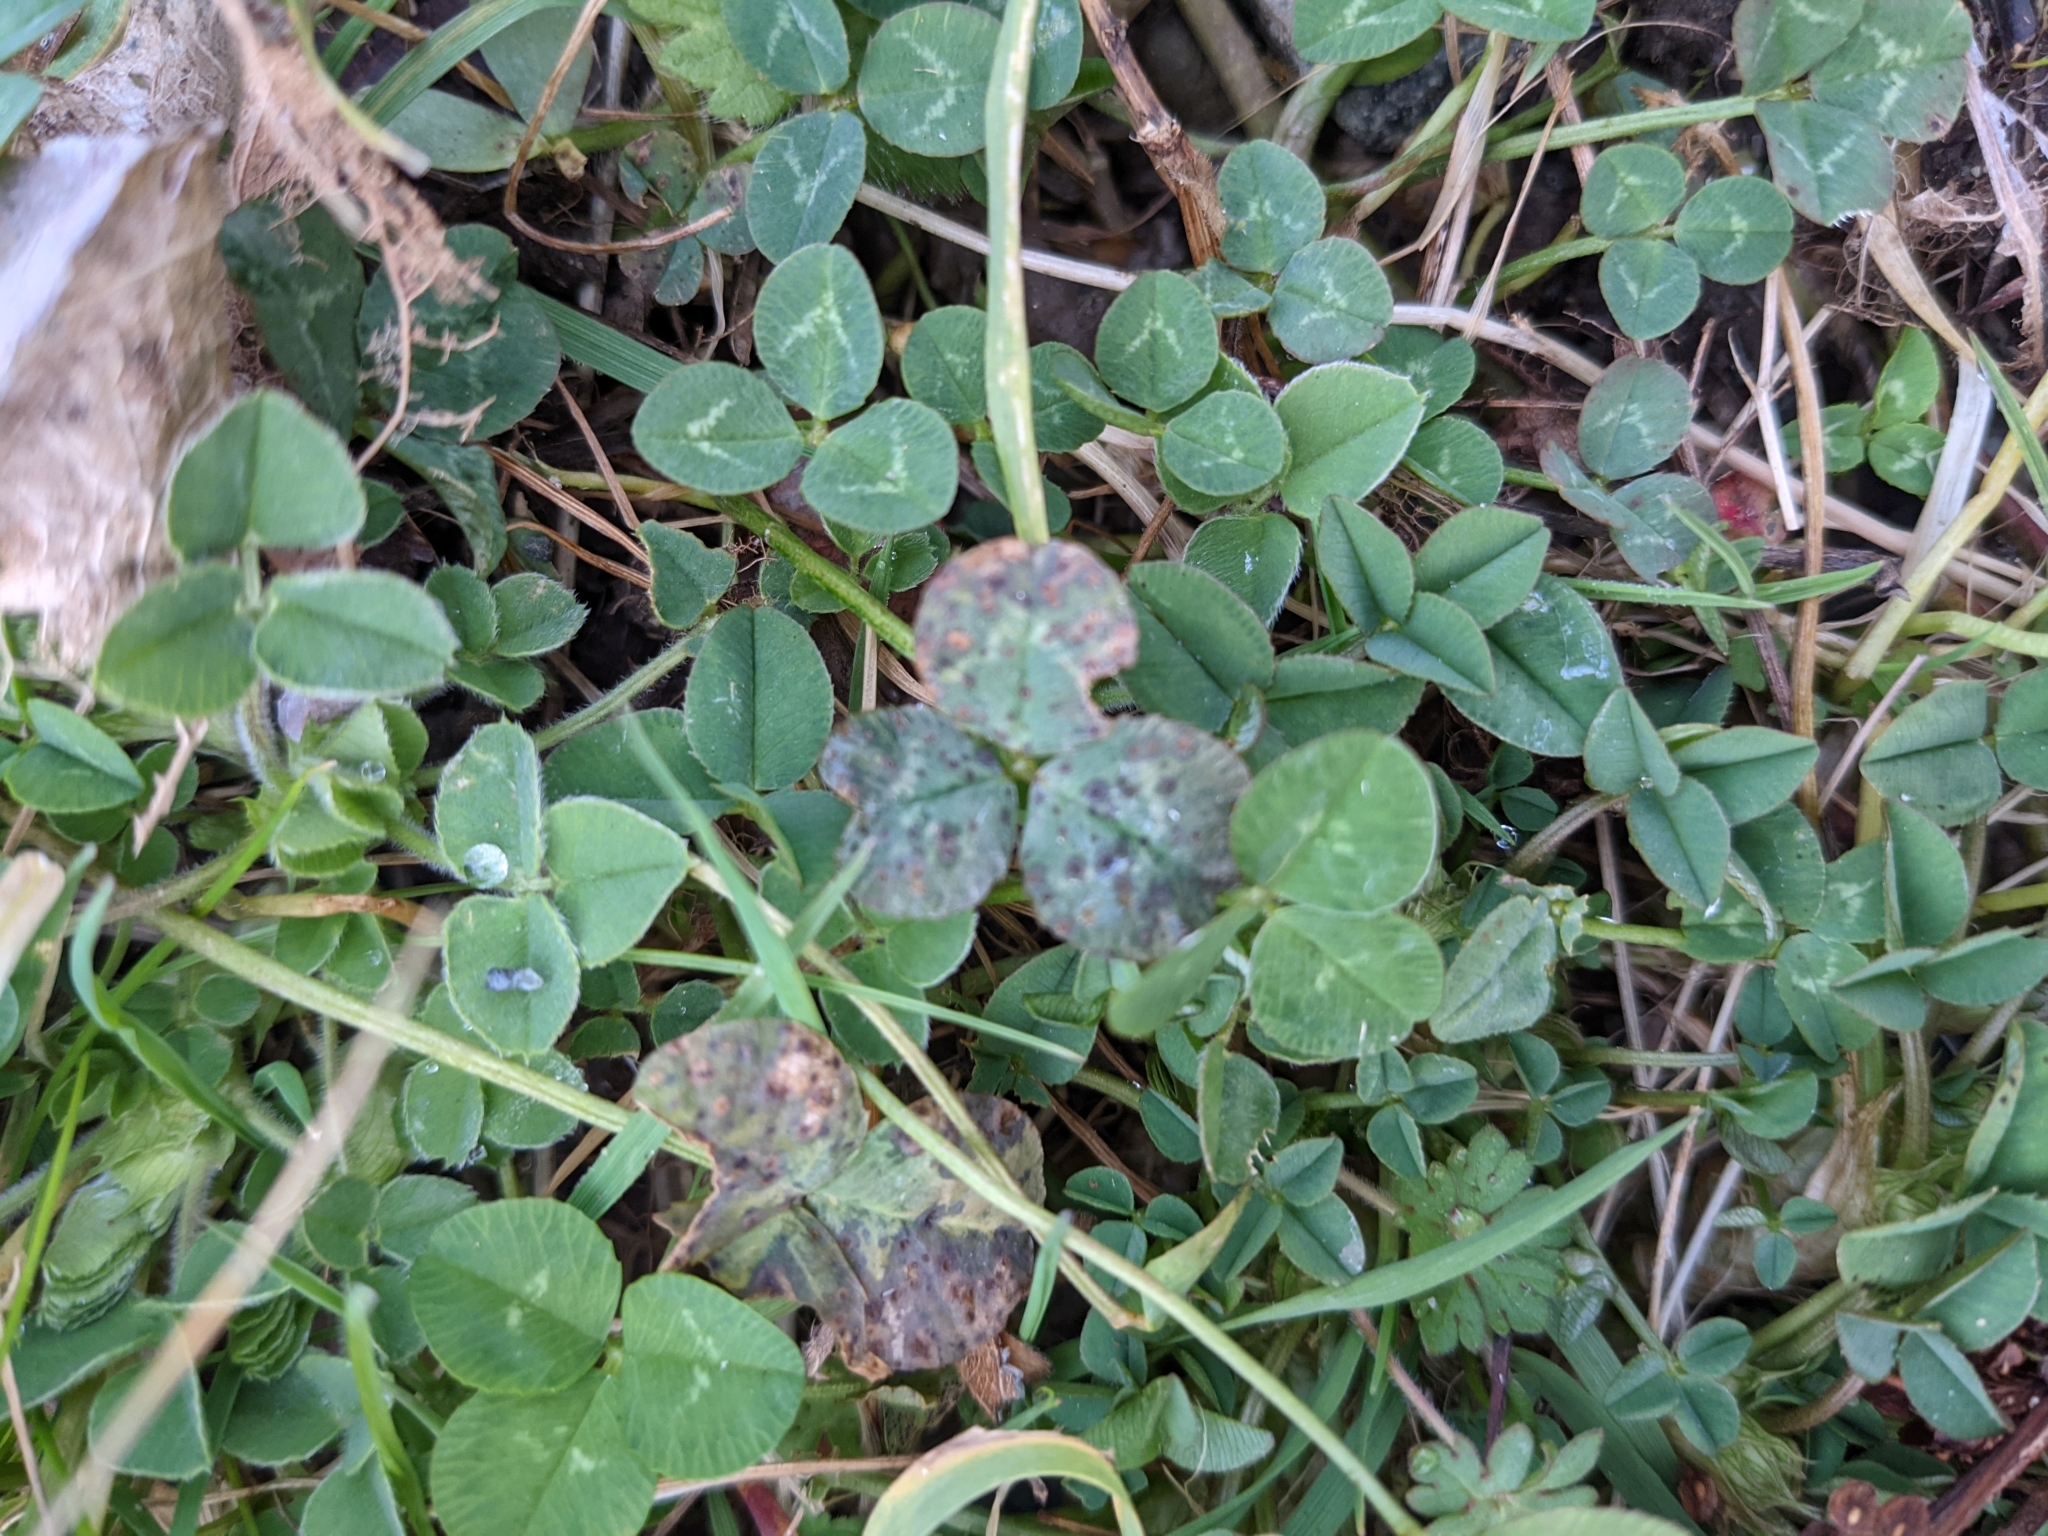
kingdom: Plantae
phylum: Tracheophyta
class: Magnoliopsida
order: Fabales
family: Fabaceae
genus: Trifolium
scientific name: Trifolium repens
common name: White clover
